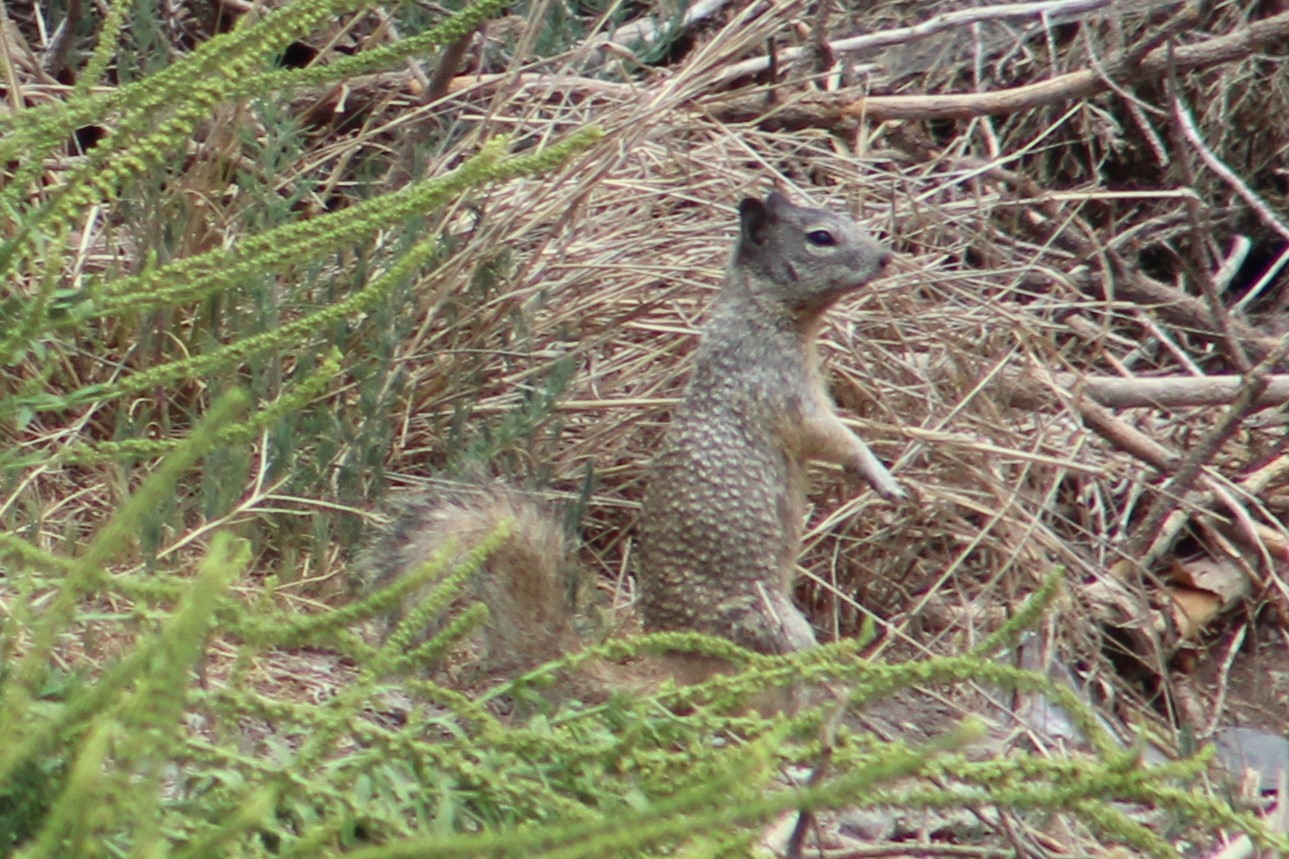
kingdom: Animalia
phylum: Chordata
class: Mammalia
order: Rodentia
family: Sciuridae
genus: Otospermophilus
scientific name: Otospermophilus variegatus
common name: Rock squirrel
